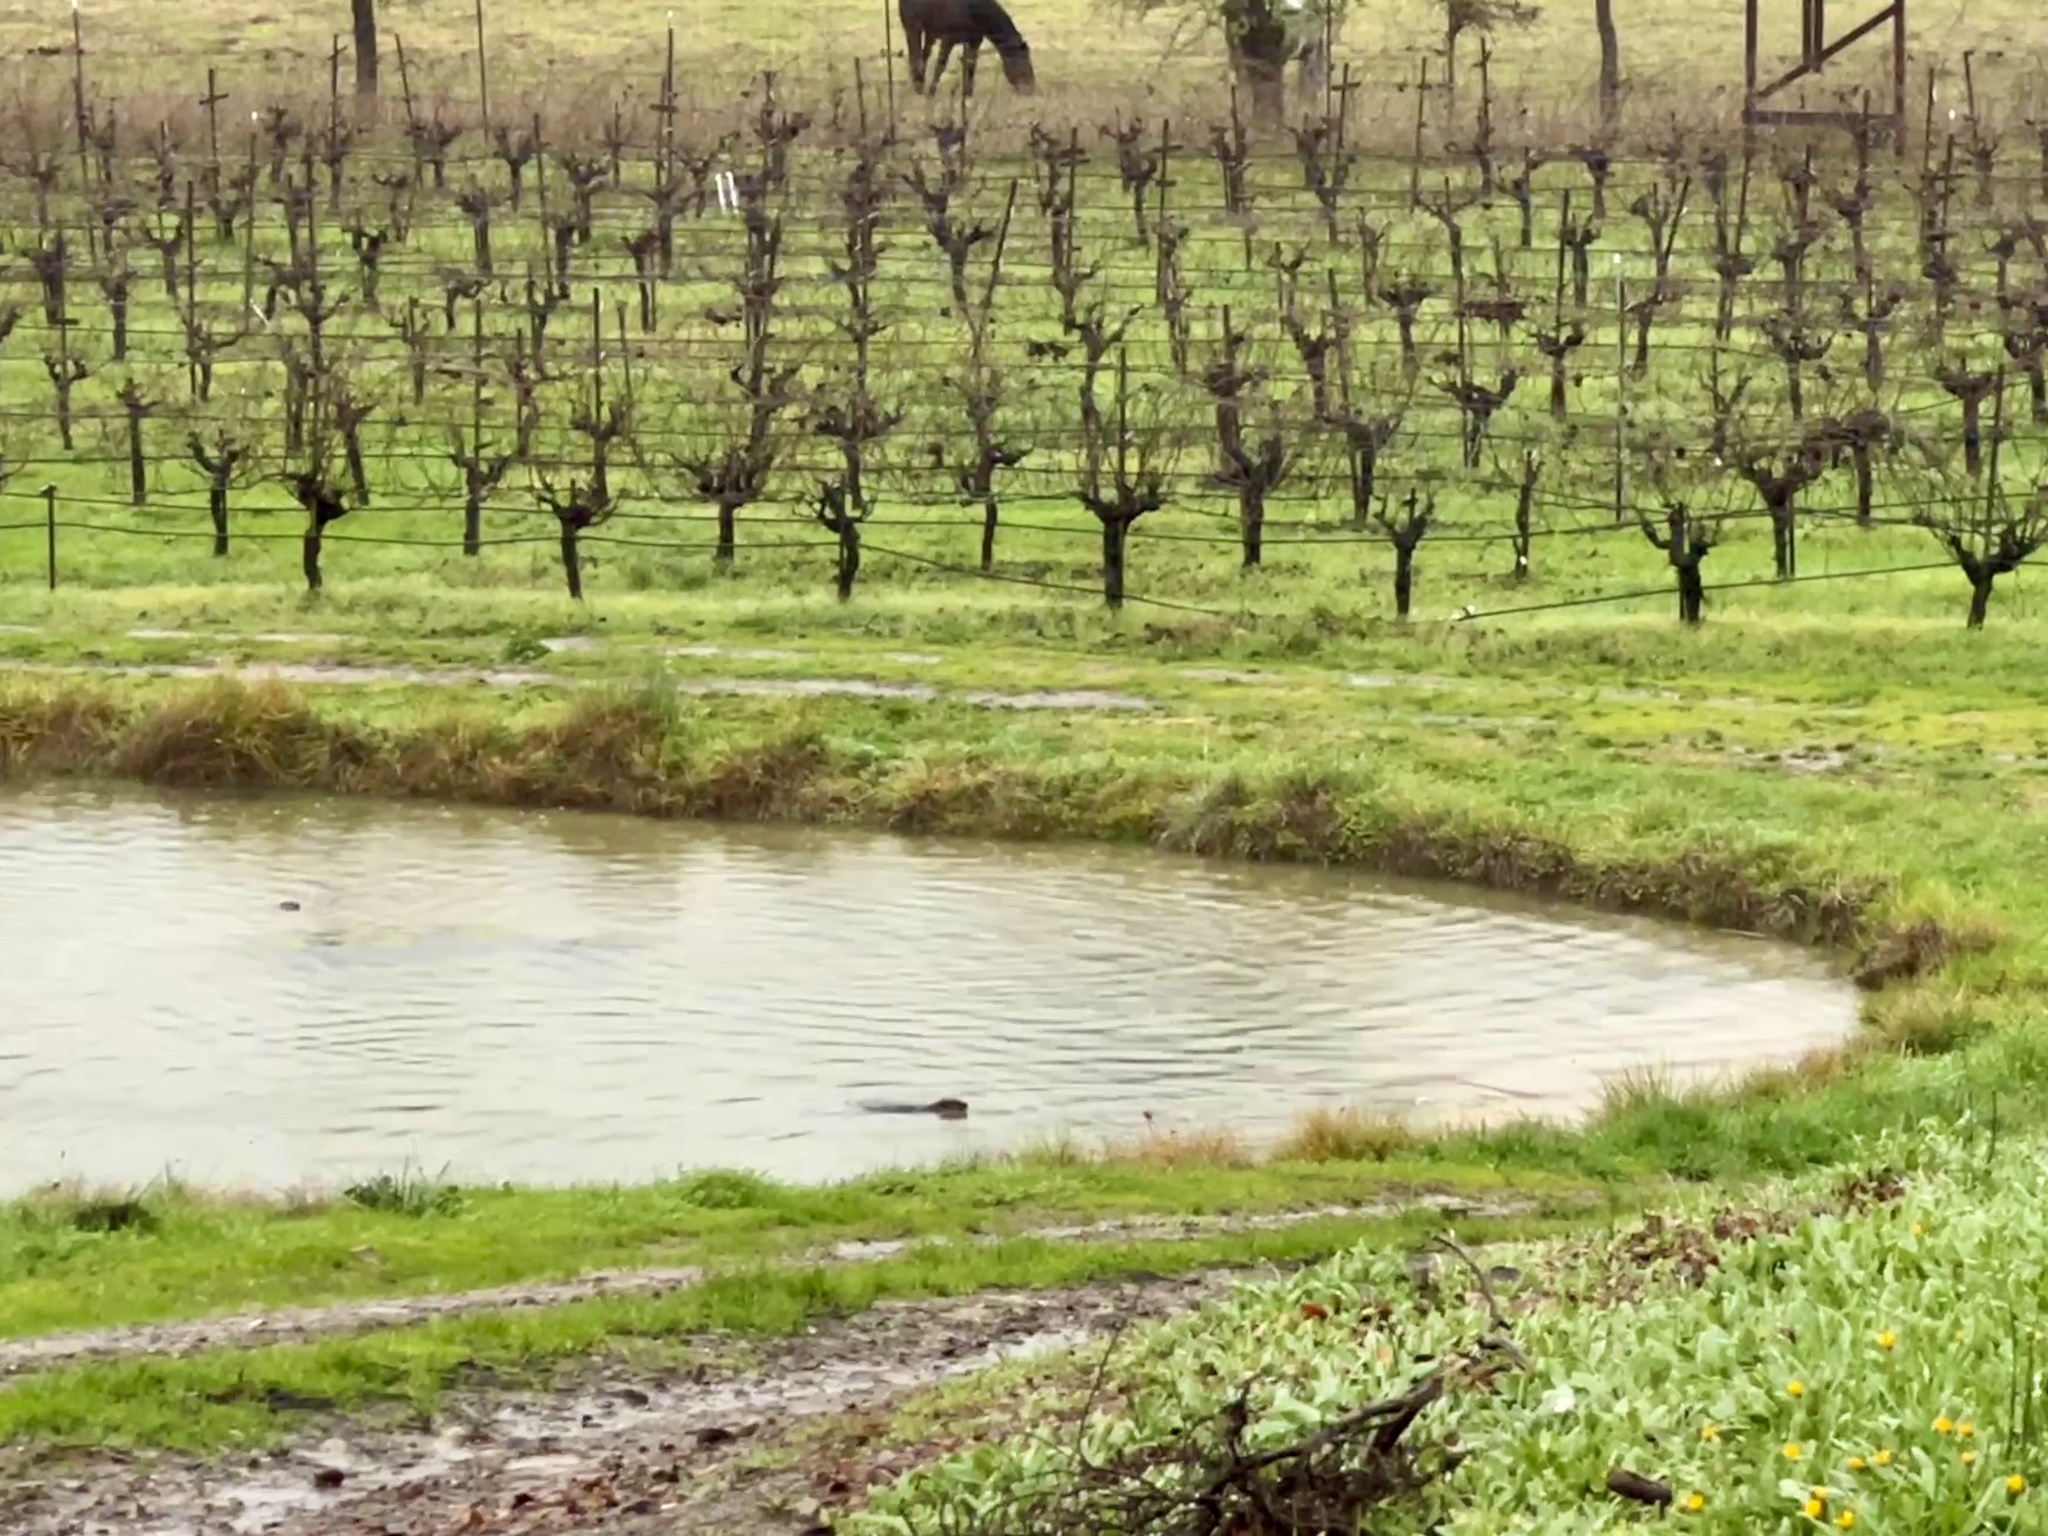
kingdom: Animalia
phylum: Chordata
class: Mammalia
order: Carnivora
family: Mustelidae
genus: Lontra
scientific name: Lontra canadensis
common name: North american river otter
